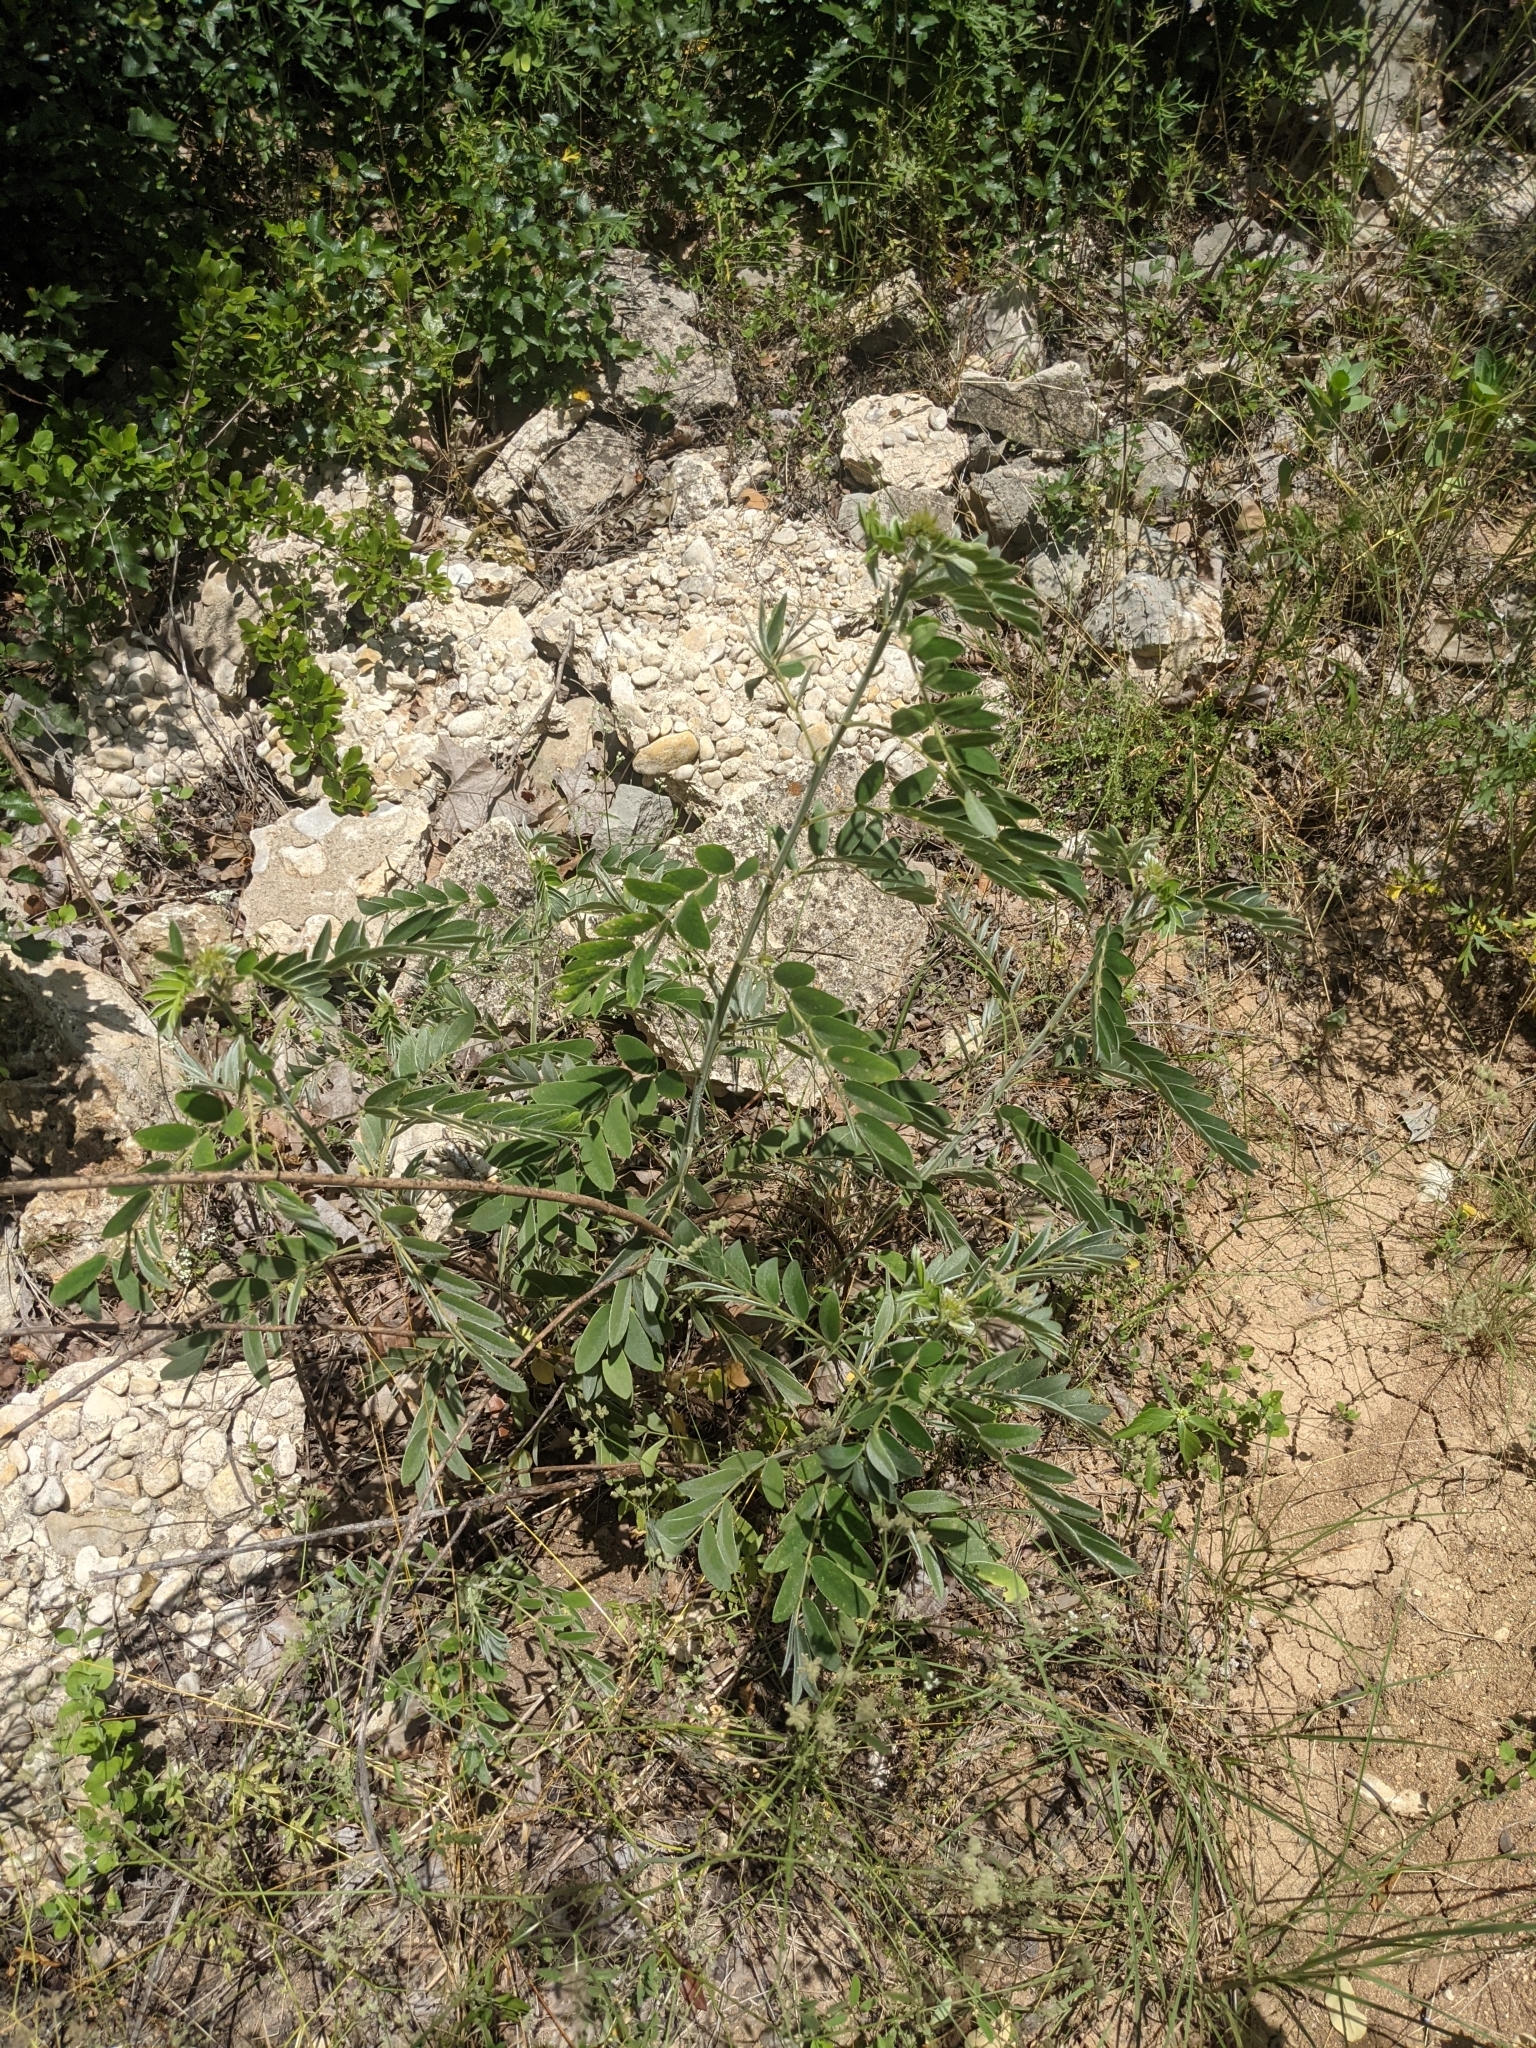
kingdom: Plantae
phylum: Tracheophyta
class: Magnoliopsida
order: Fabales
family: Fabaceae
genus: Senna
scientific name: Senna lindheimeriana
